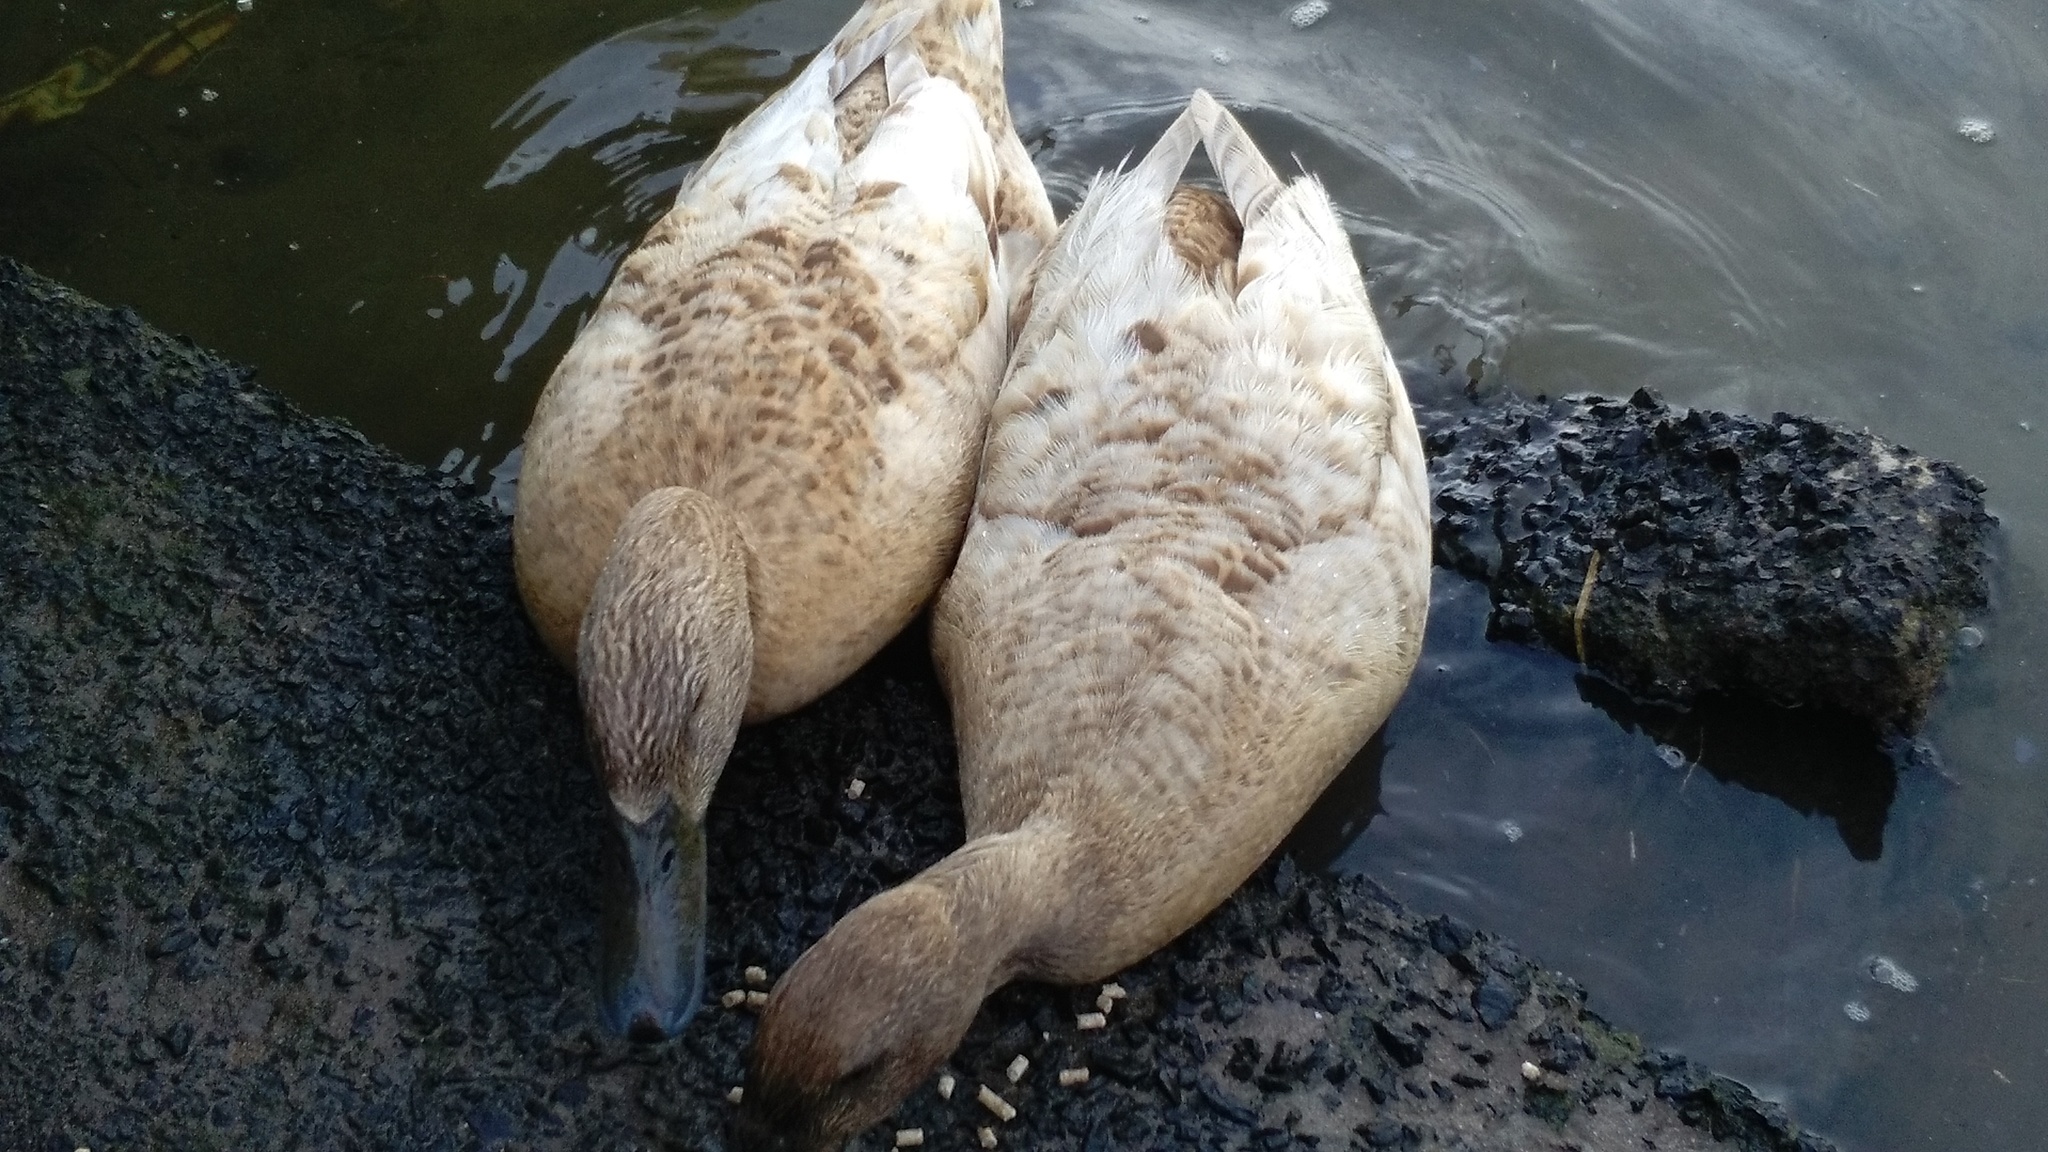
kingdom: Animalia
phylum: Chordata
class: Aves
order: Anseriformes
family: Anatidae
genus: Anas
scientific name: Anas platyrhynchos
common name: Mallard
